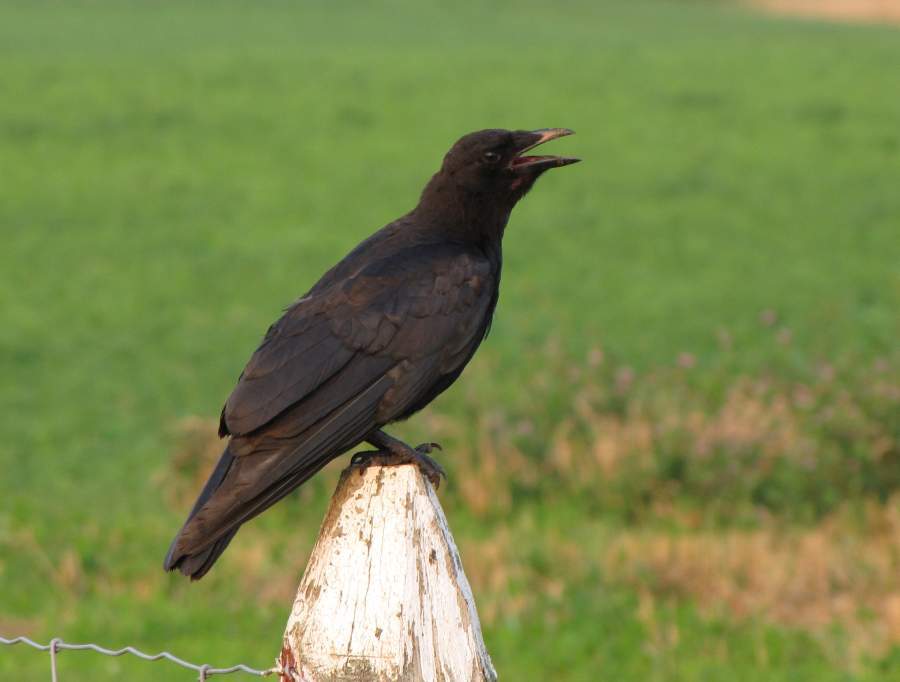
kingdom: Animalia
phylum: Chordata
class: Aves
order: Passeriformes
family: Corvidae
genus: Corvus
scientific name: Corvus brachyrhynchos
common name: American crow
